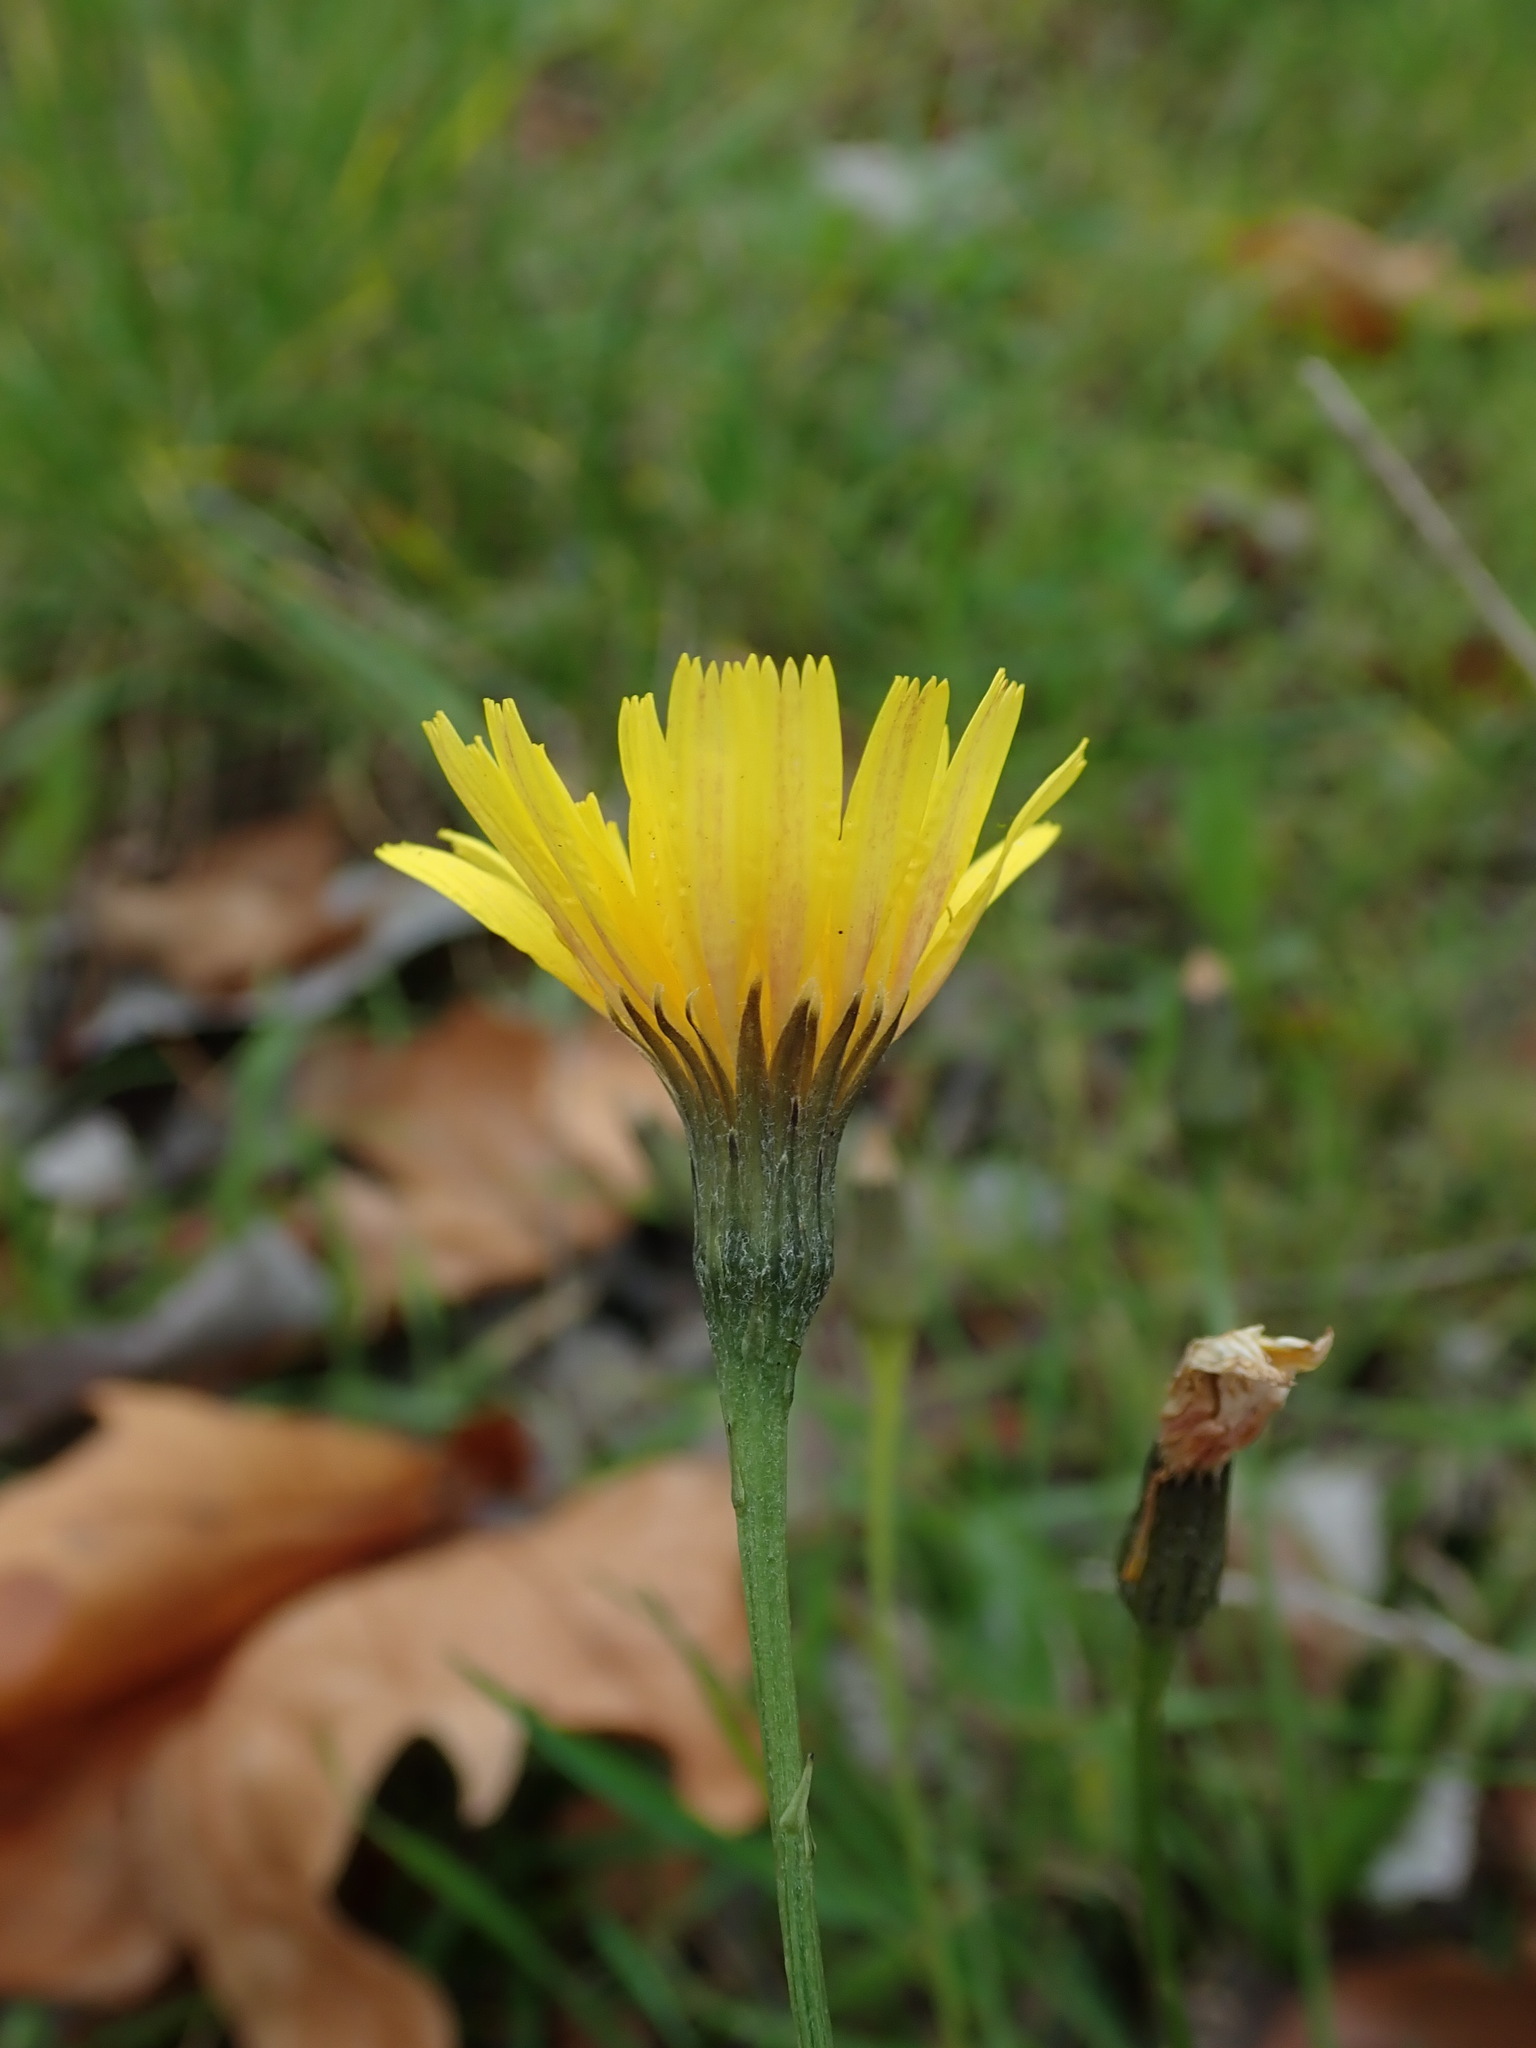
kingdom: Plantae
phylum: Tracheophyta
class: Magnoliopsida
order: Asterales
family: Asteraceae
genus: Scorzoneroides
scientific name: Scorzoneroides autumnalis
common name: Autumn hawkbit
